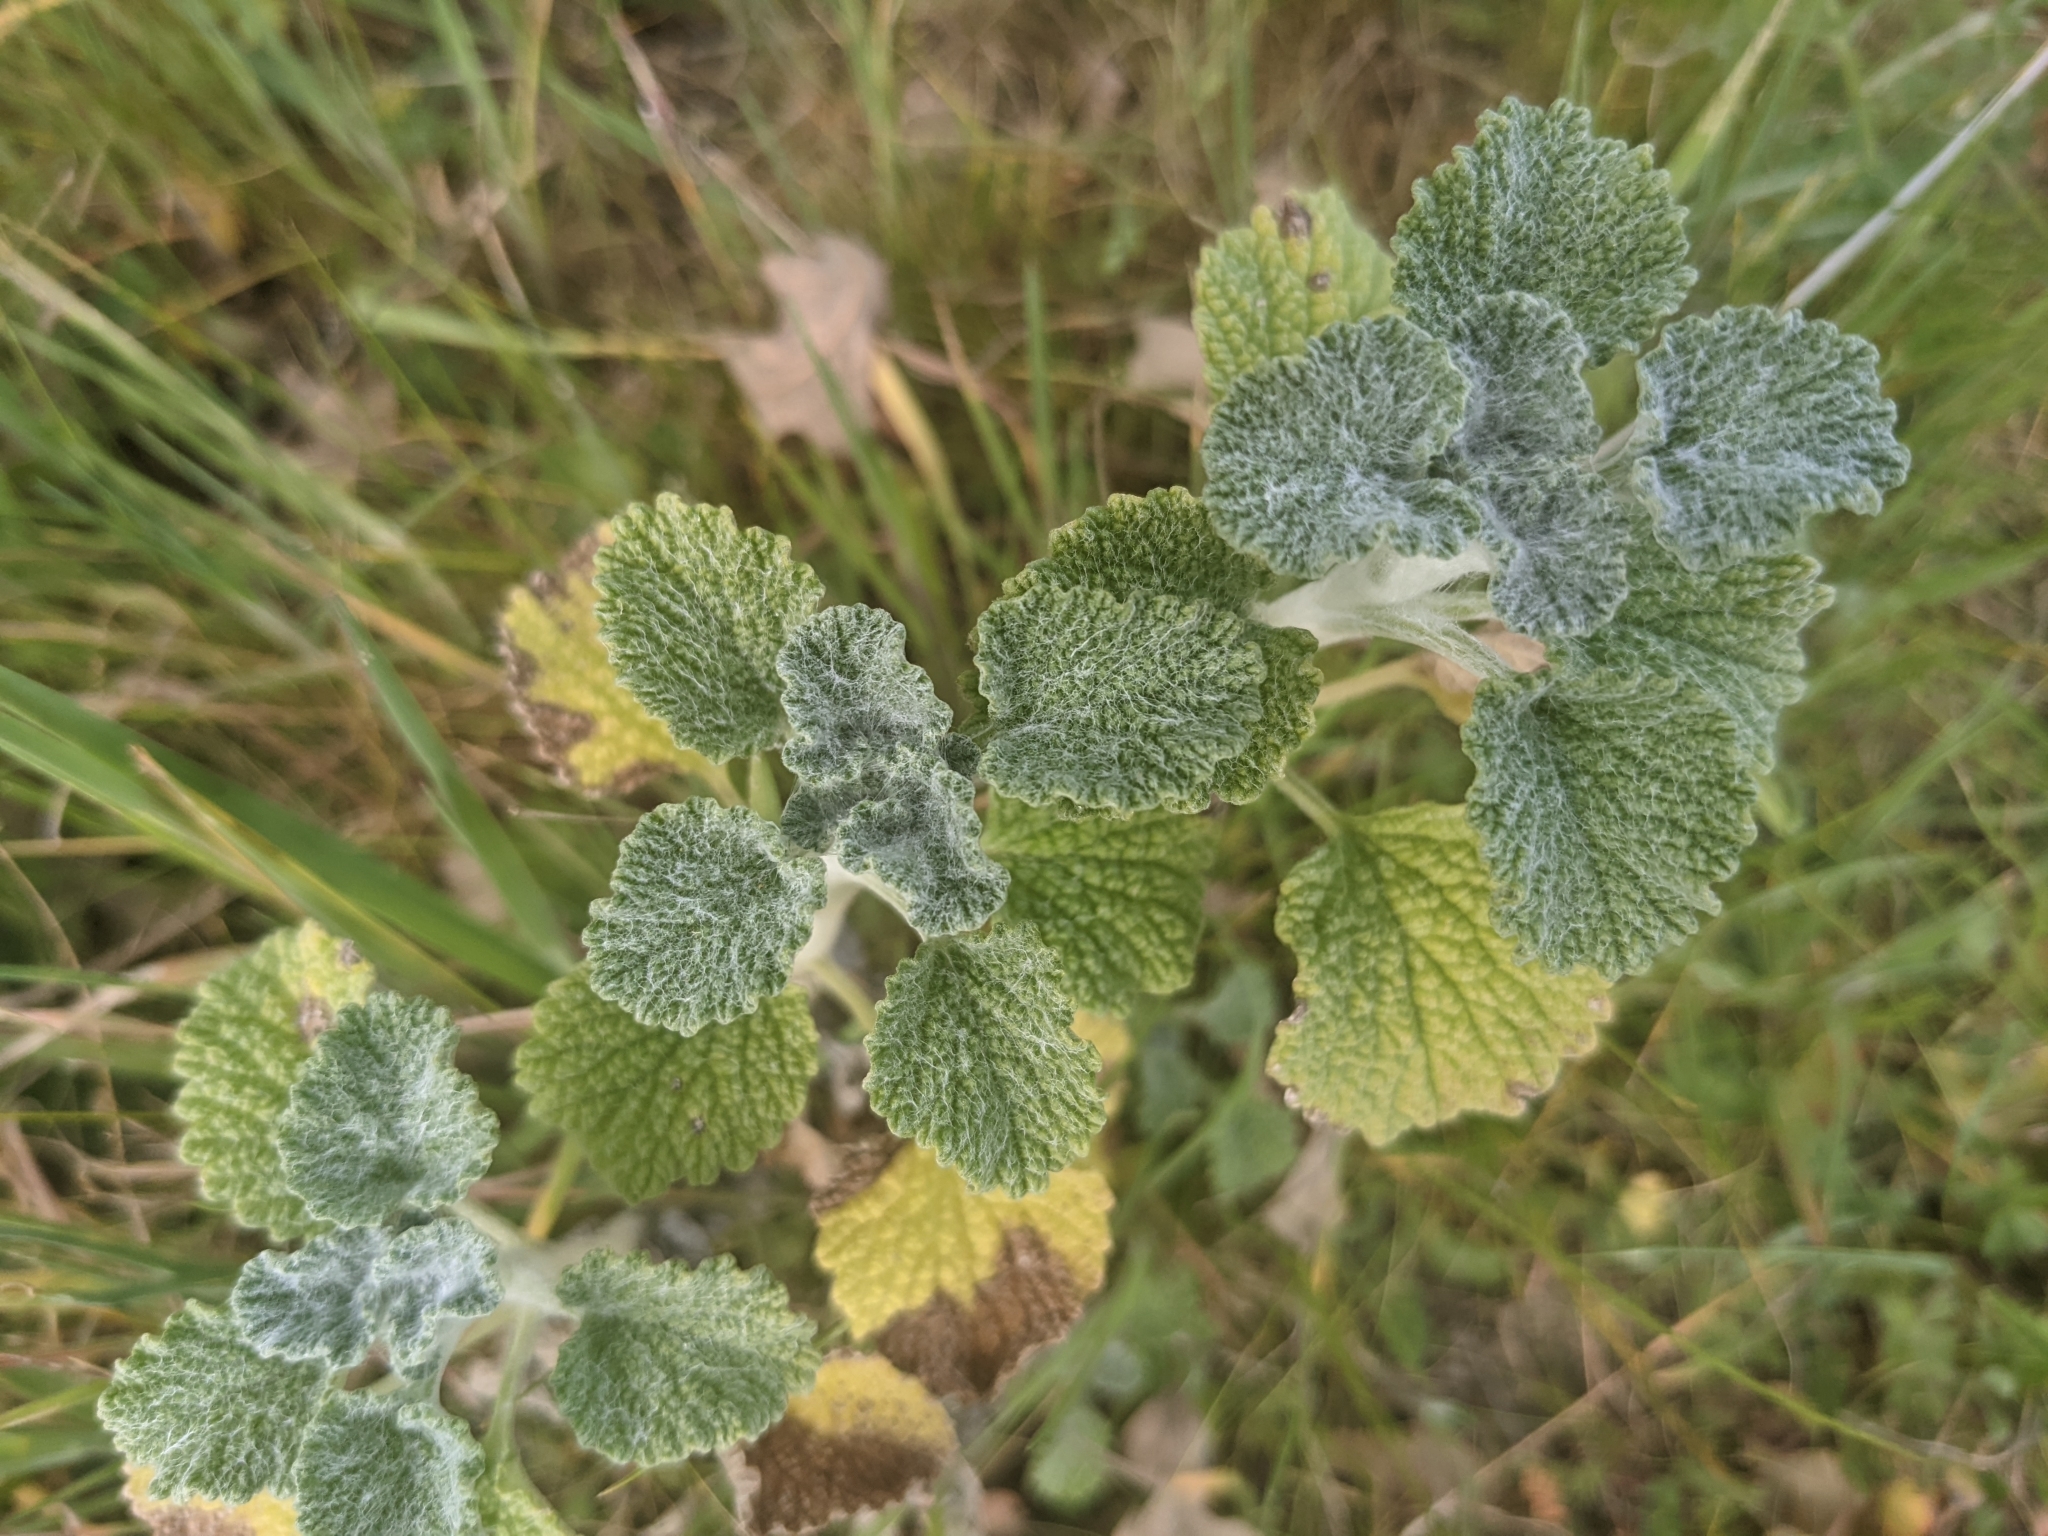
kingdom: Plantae
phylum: Tracheophyta
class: Magnoliopsida
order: Lamiales
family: Lamiaceae
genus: Marrubium
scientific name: Marrubium vulgare
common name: Horehound
